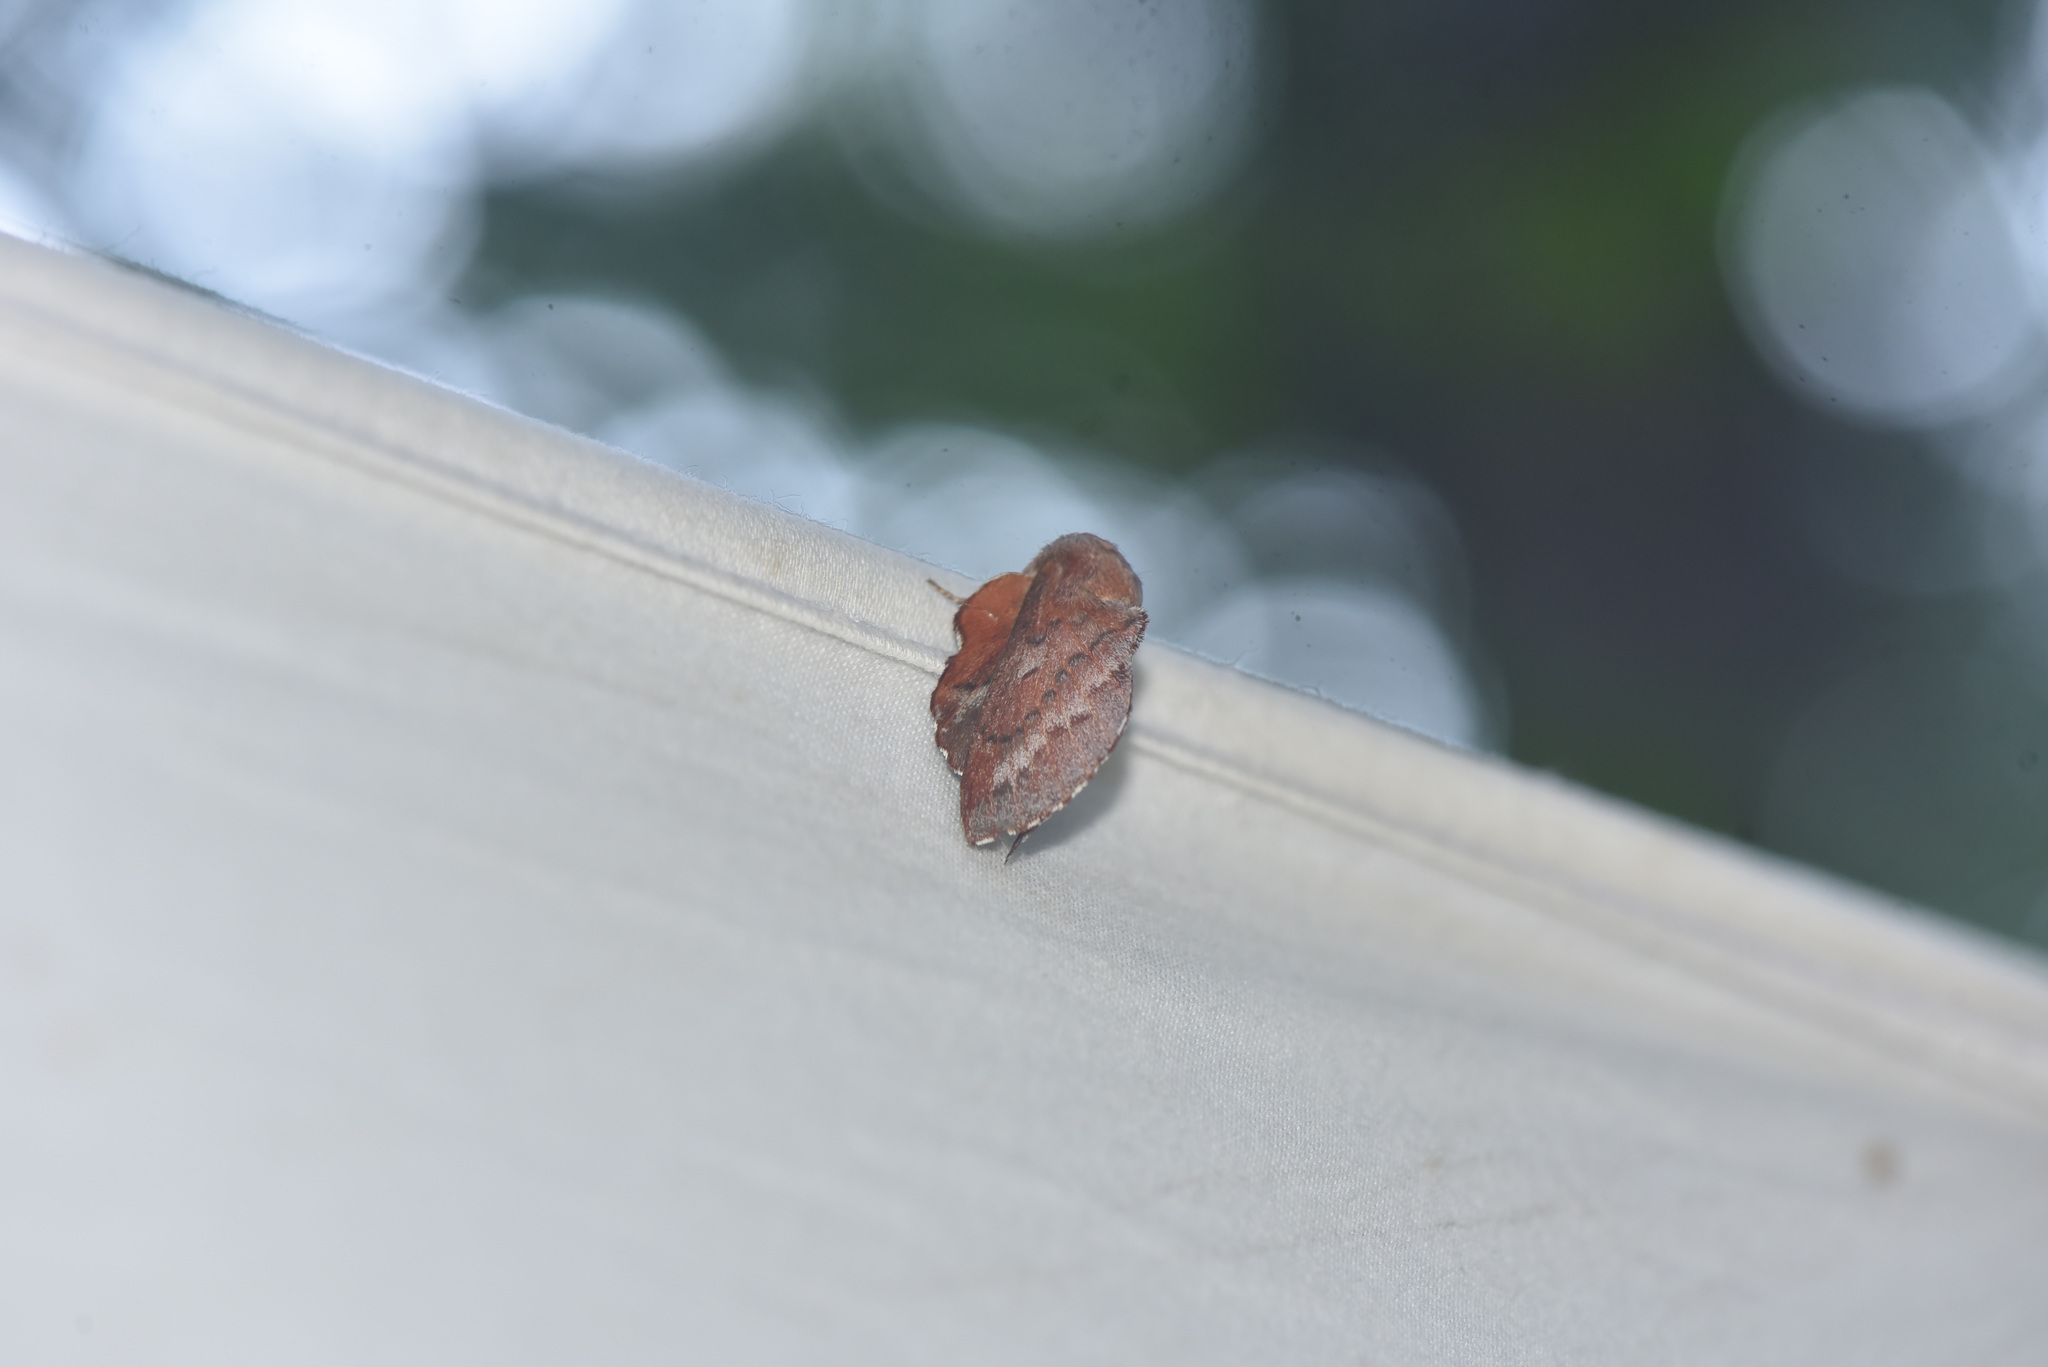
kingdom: Animalia
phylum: Arthropoda
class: Insecta
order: Lepidoptera
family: Lasiocampidae
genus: Phyllodesma
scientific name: Phyllodesma americana
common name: American lappet moth
